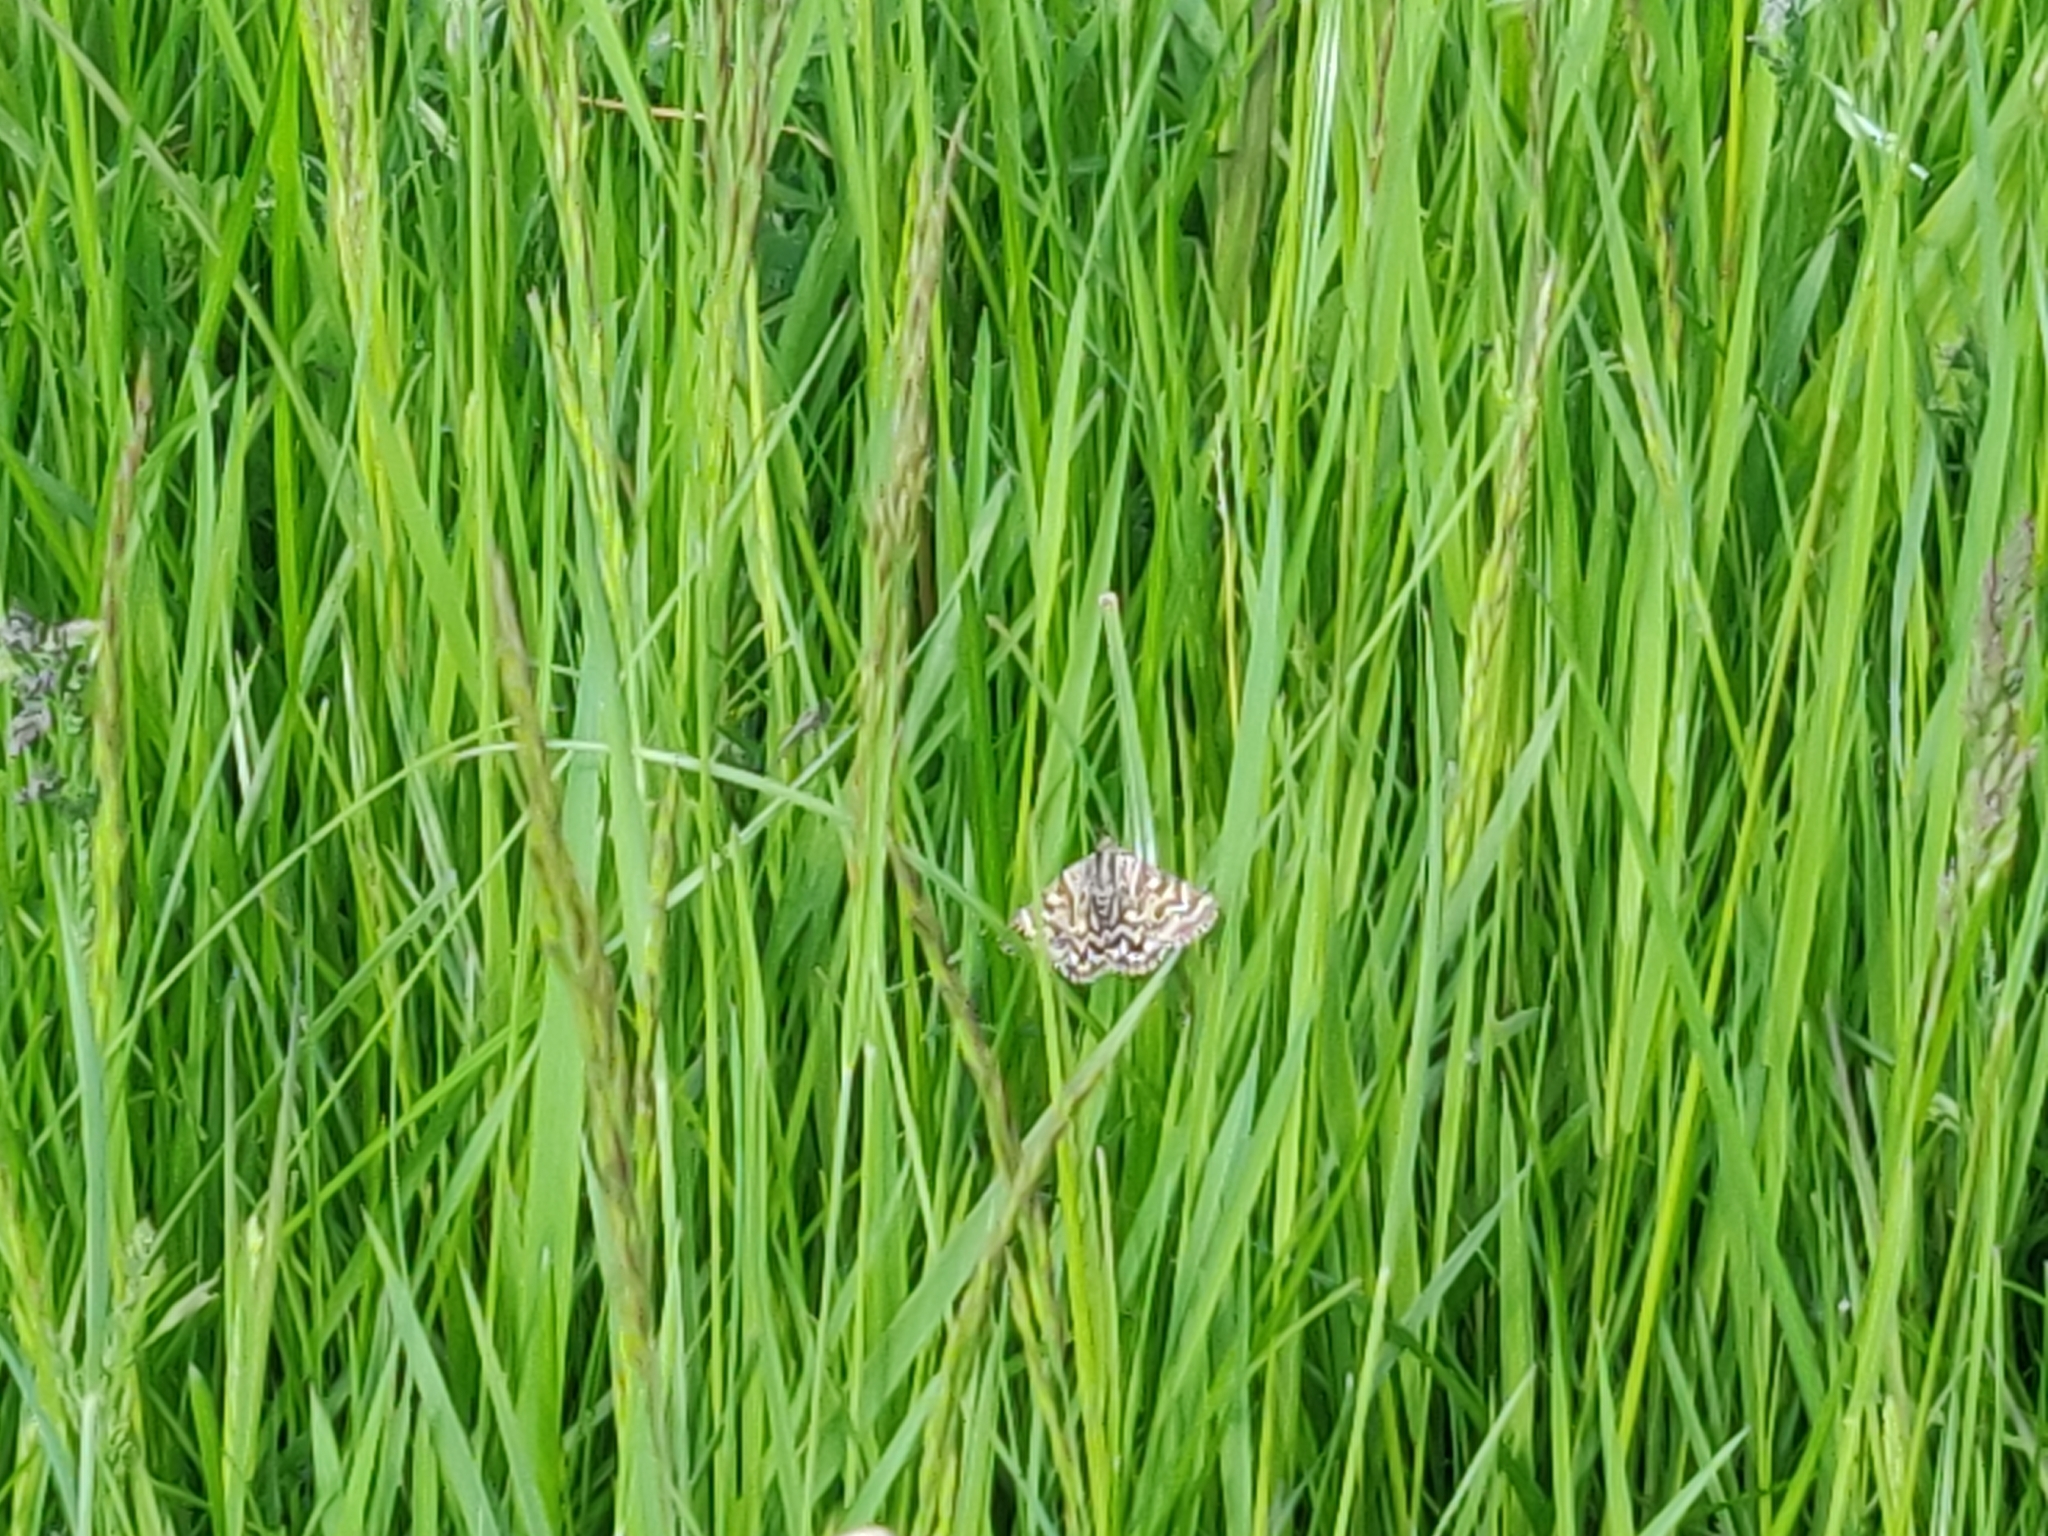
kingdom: Animalia
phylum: Arthropoda
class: Insecta
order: Lepidoptera
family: Erebidae
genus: Callistege
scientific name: Callistege mi
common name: Mother shipton
